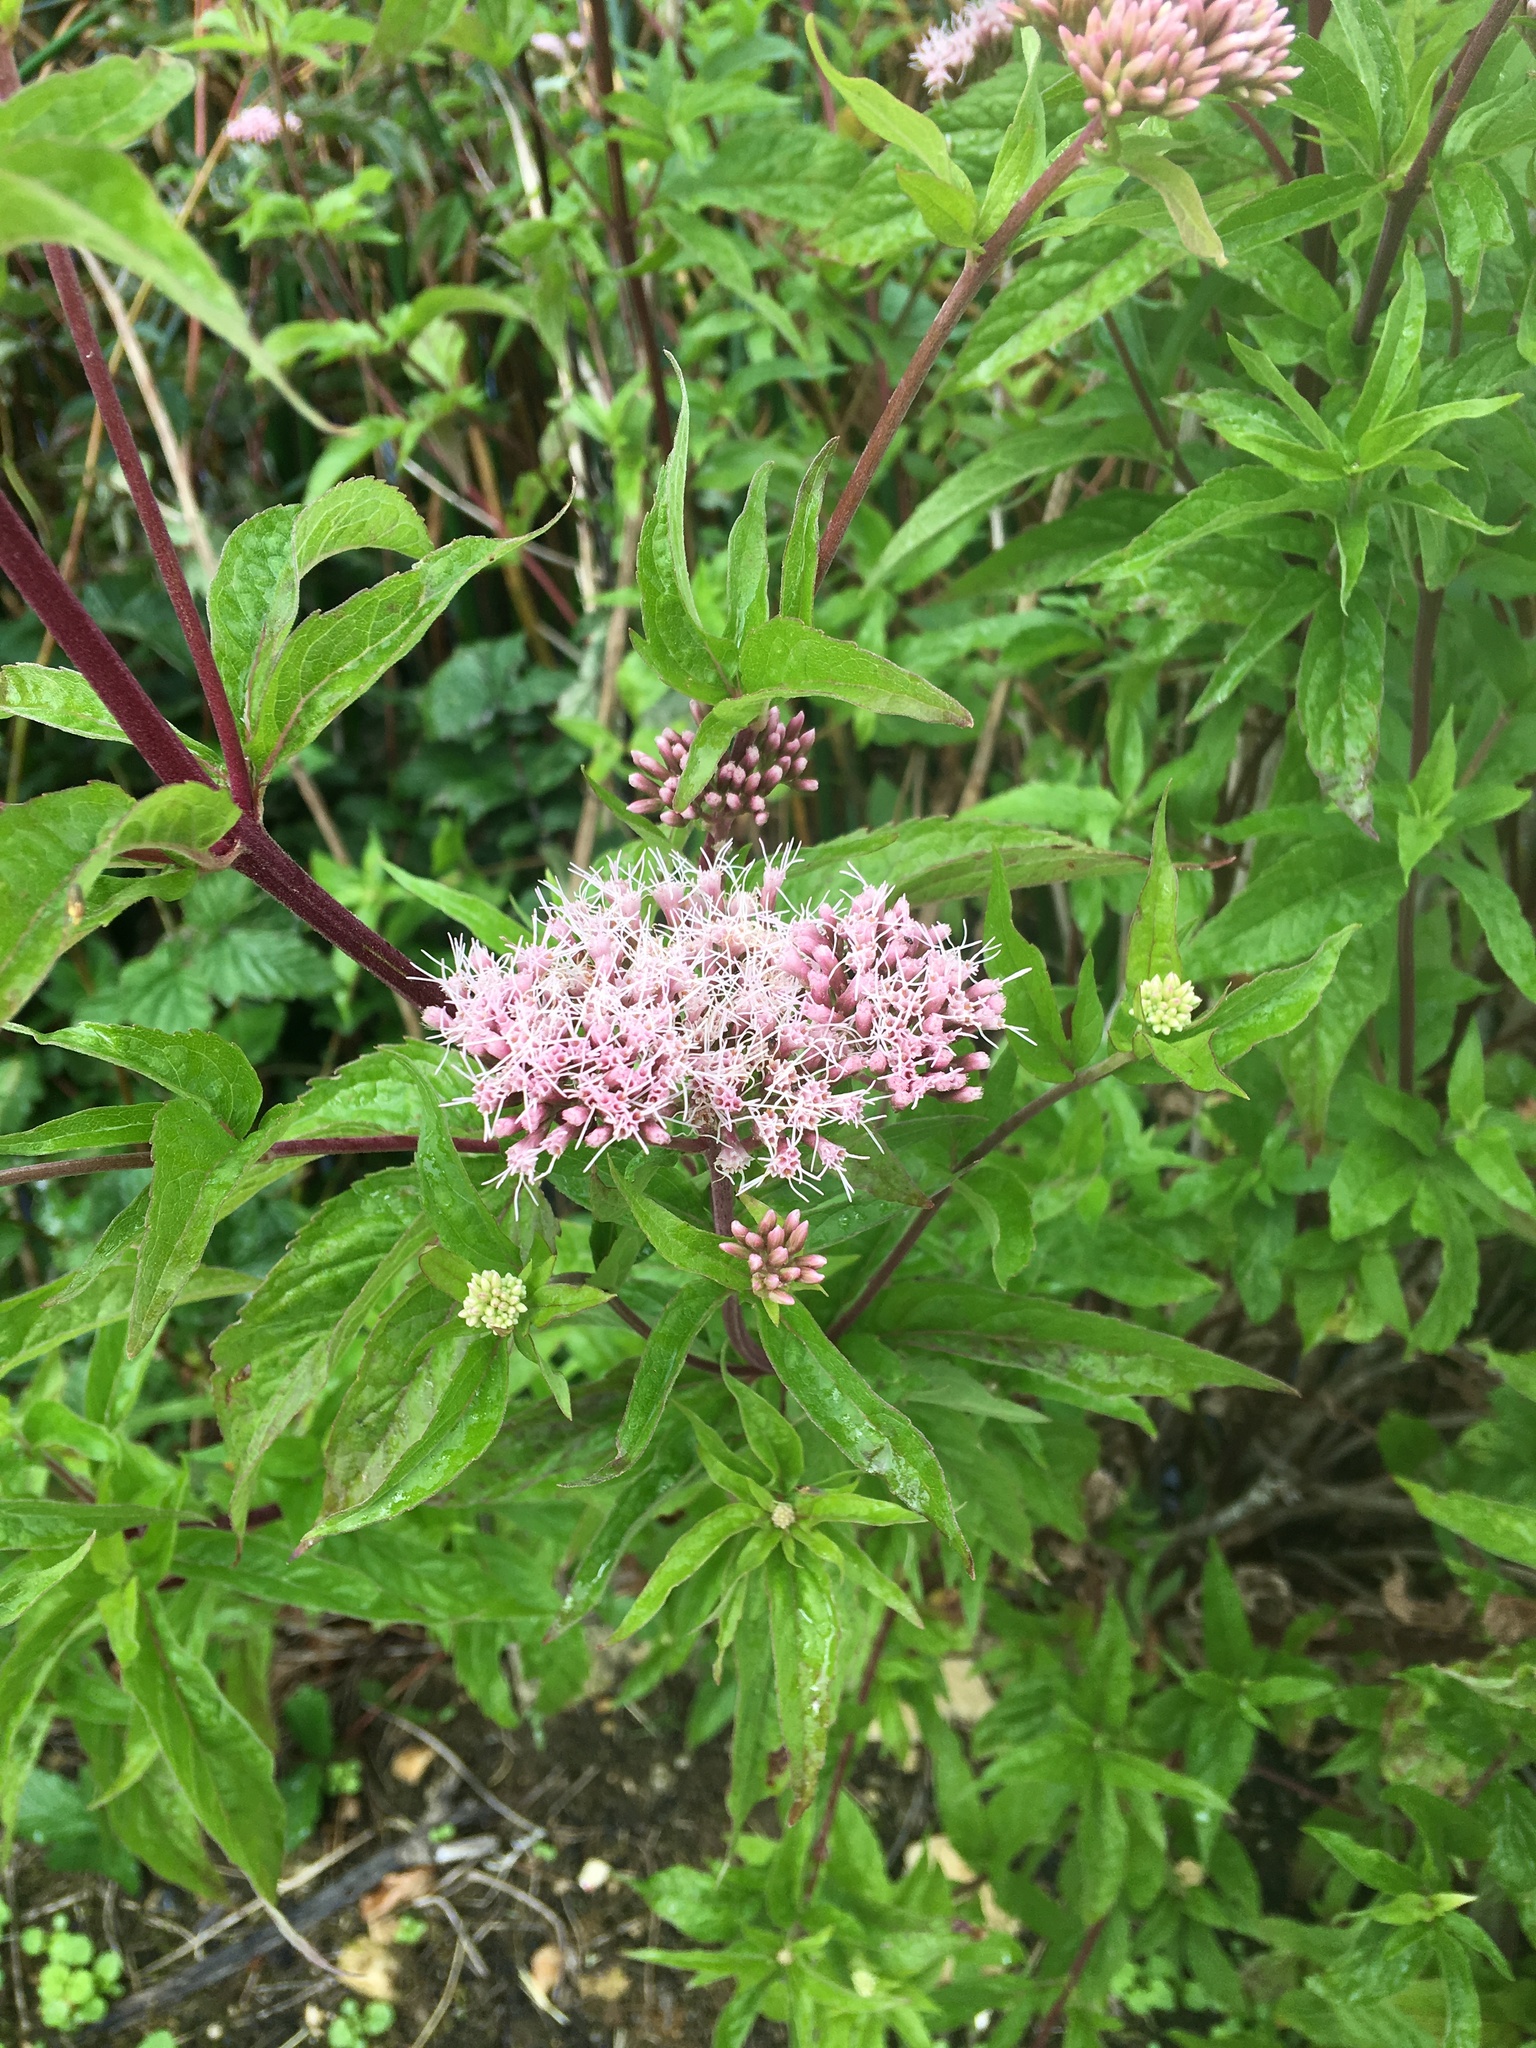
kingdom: Plantae
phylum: Tracheophyta
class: Magnoliopsida
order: Asterales
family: Asteraceae
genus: Eupatorium
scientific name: Eupatorium cannabinum
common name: Hemp-agrimony
